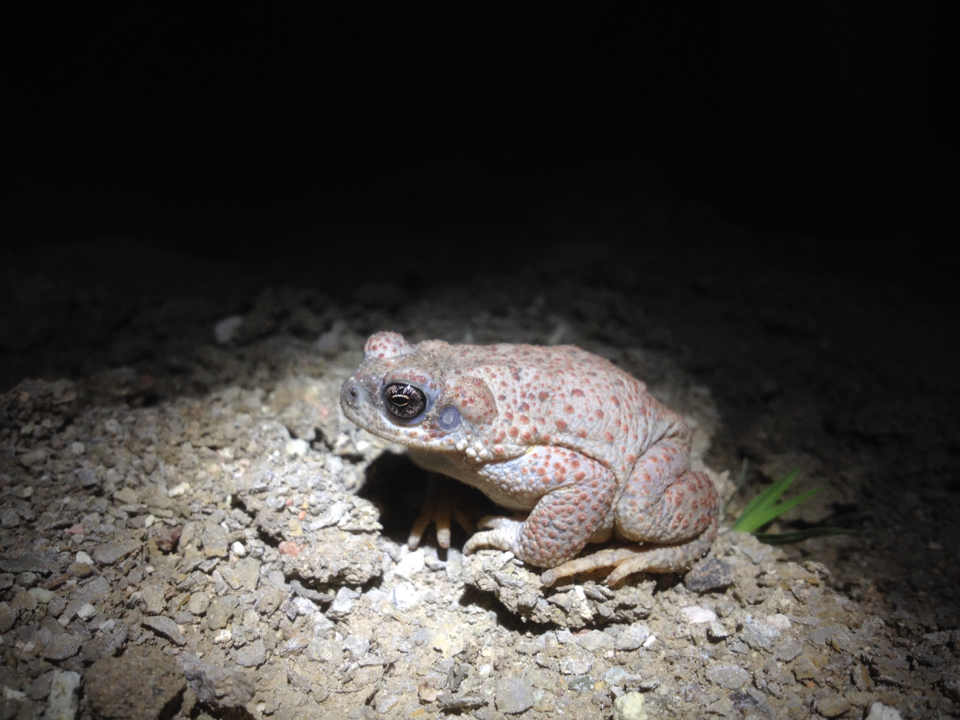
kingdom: Animalia
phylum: Chordata
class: Amphibia
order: Anura
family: Bufonidae
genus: Anaxyrus
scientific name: Anaxyrus punctatus
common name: Red-spotted toad
